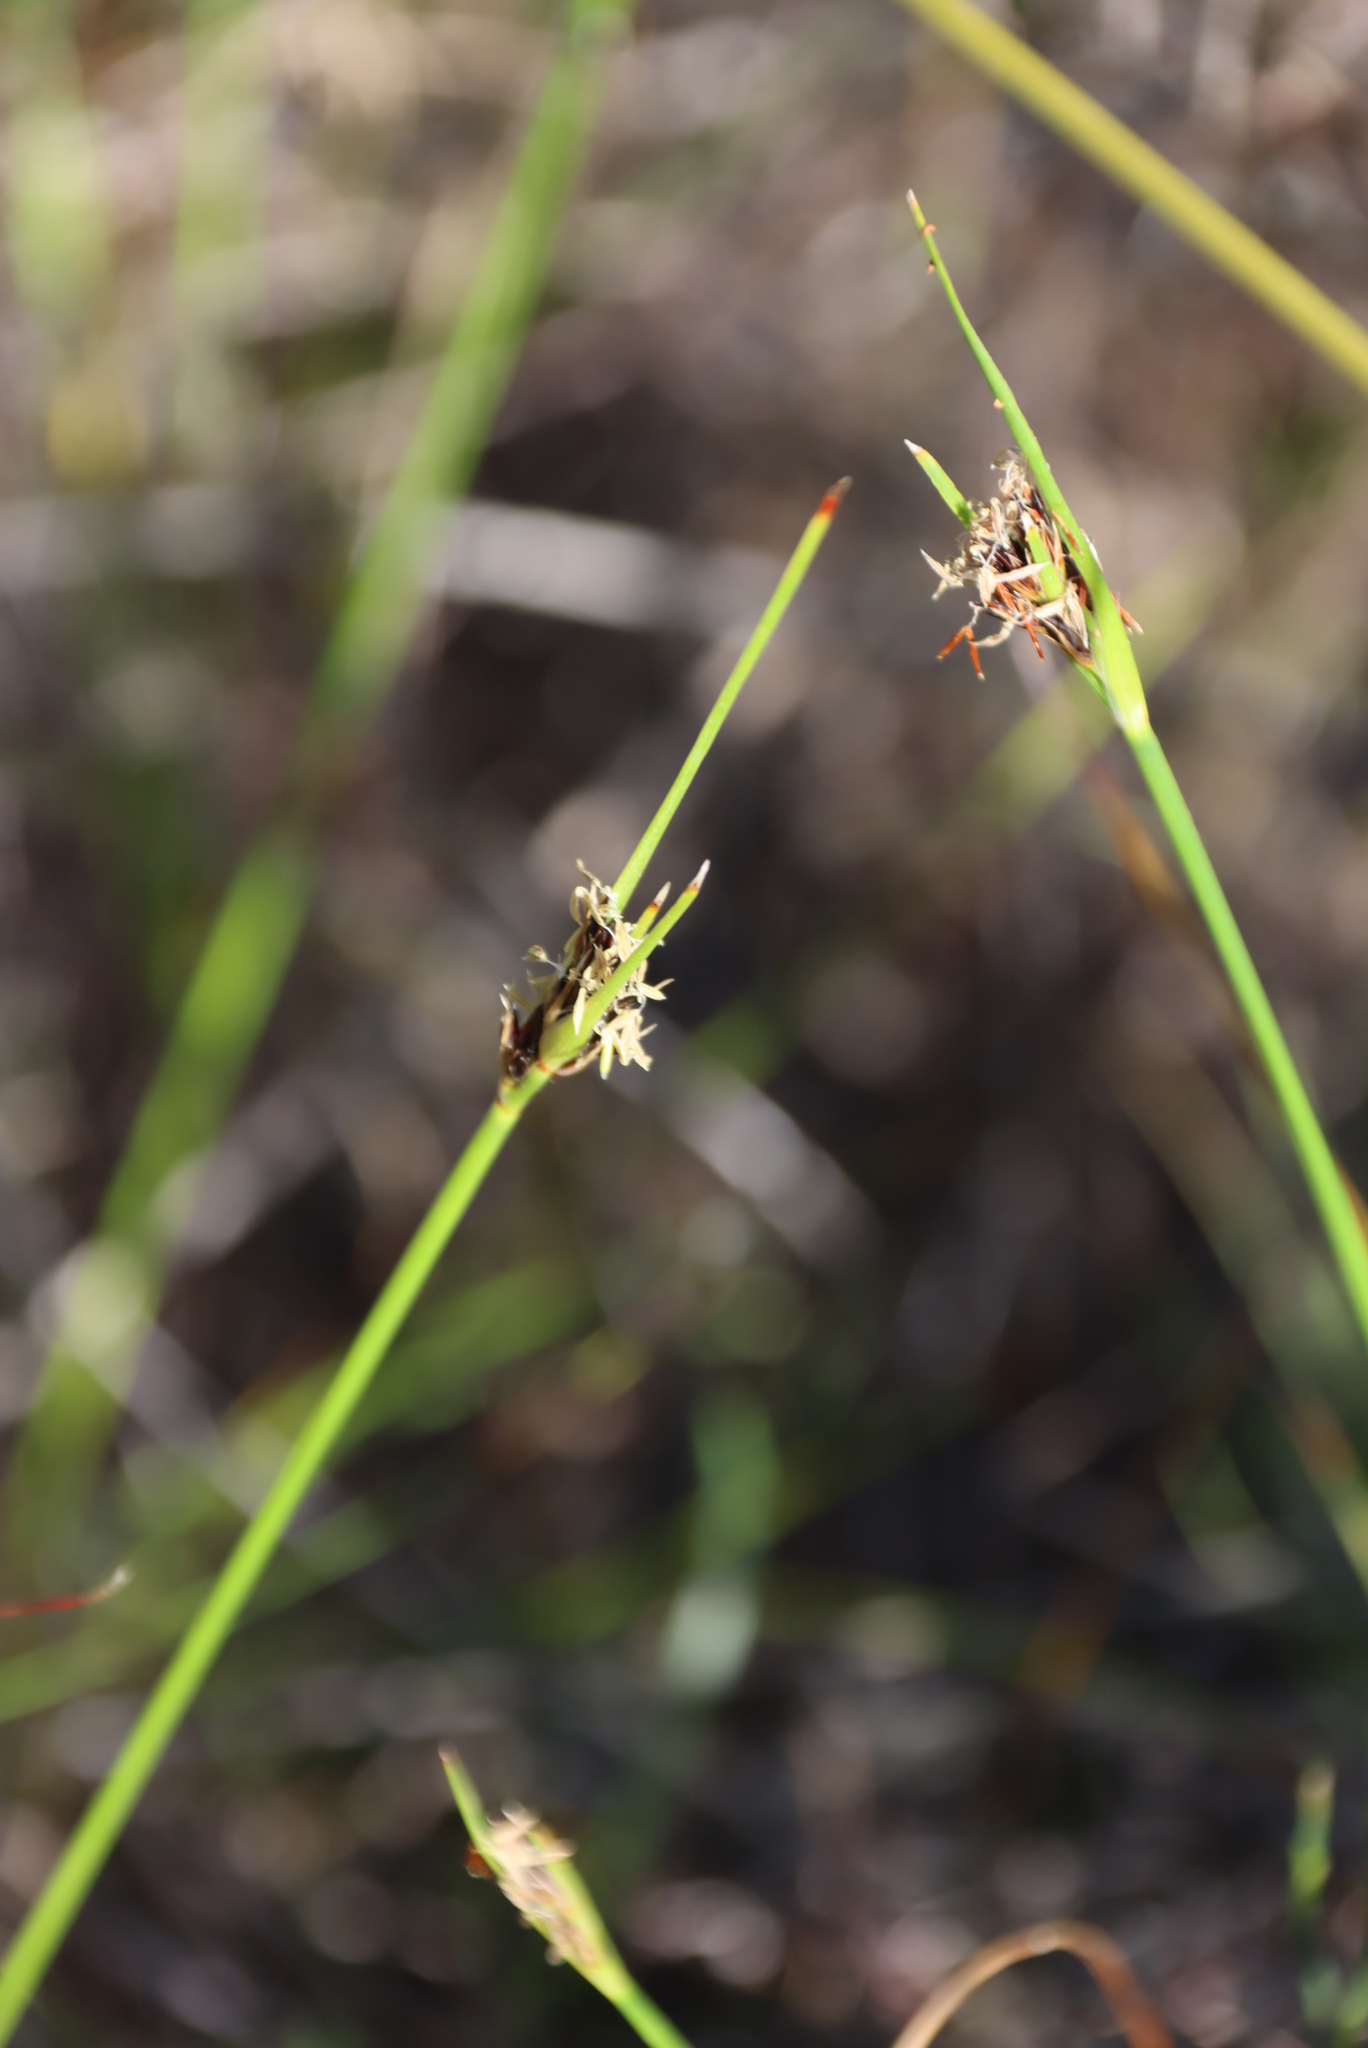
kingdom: Plantae
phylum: Tracheophyta
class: Liliopsida
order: Poales
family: Cyperaceae
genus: Schoenus
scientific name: Schoenus auritus
